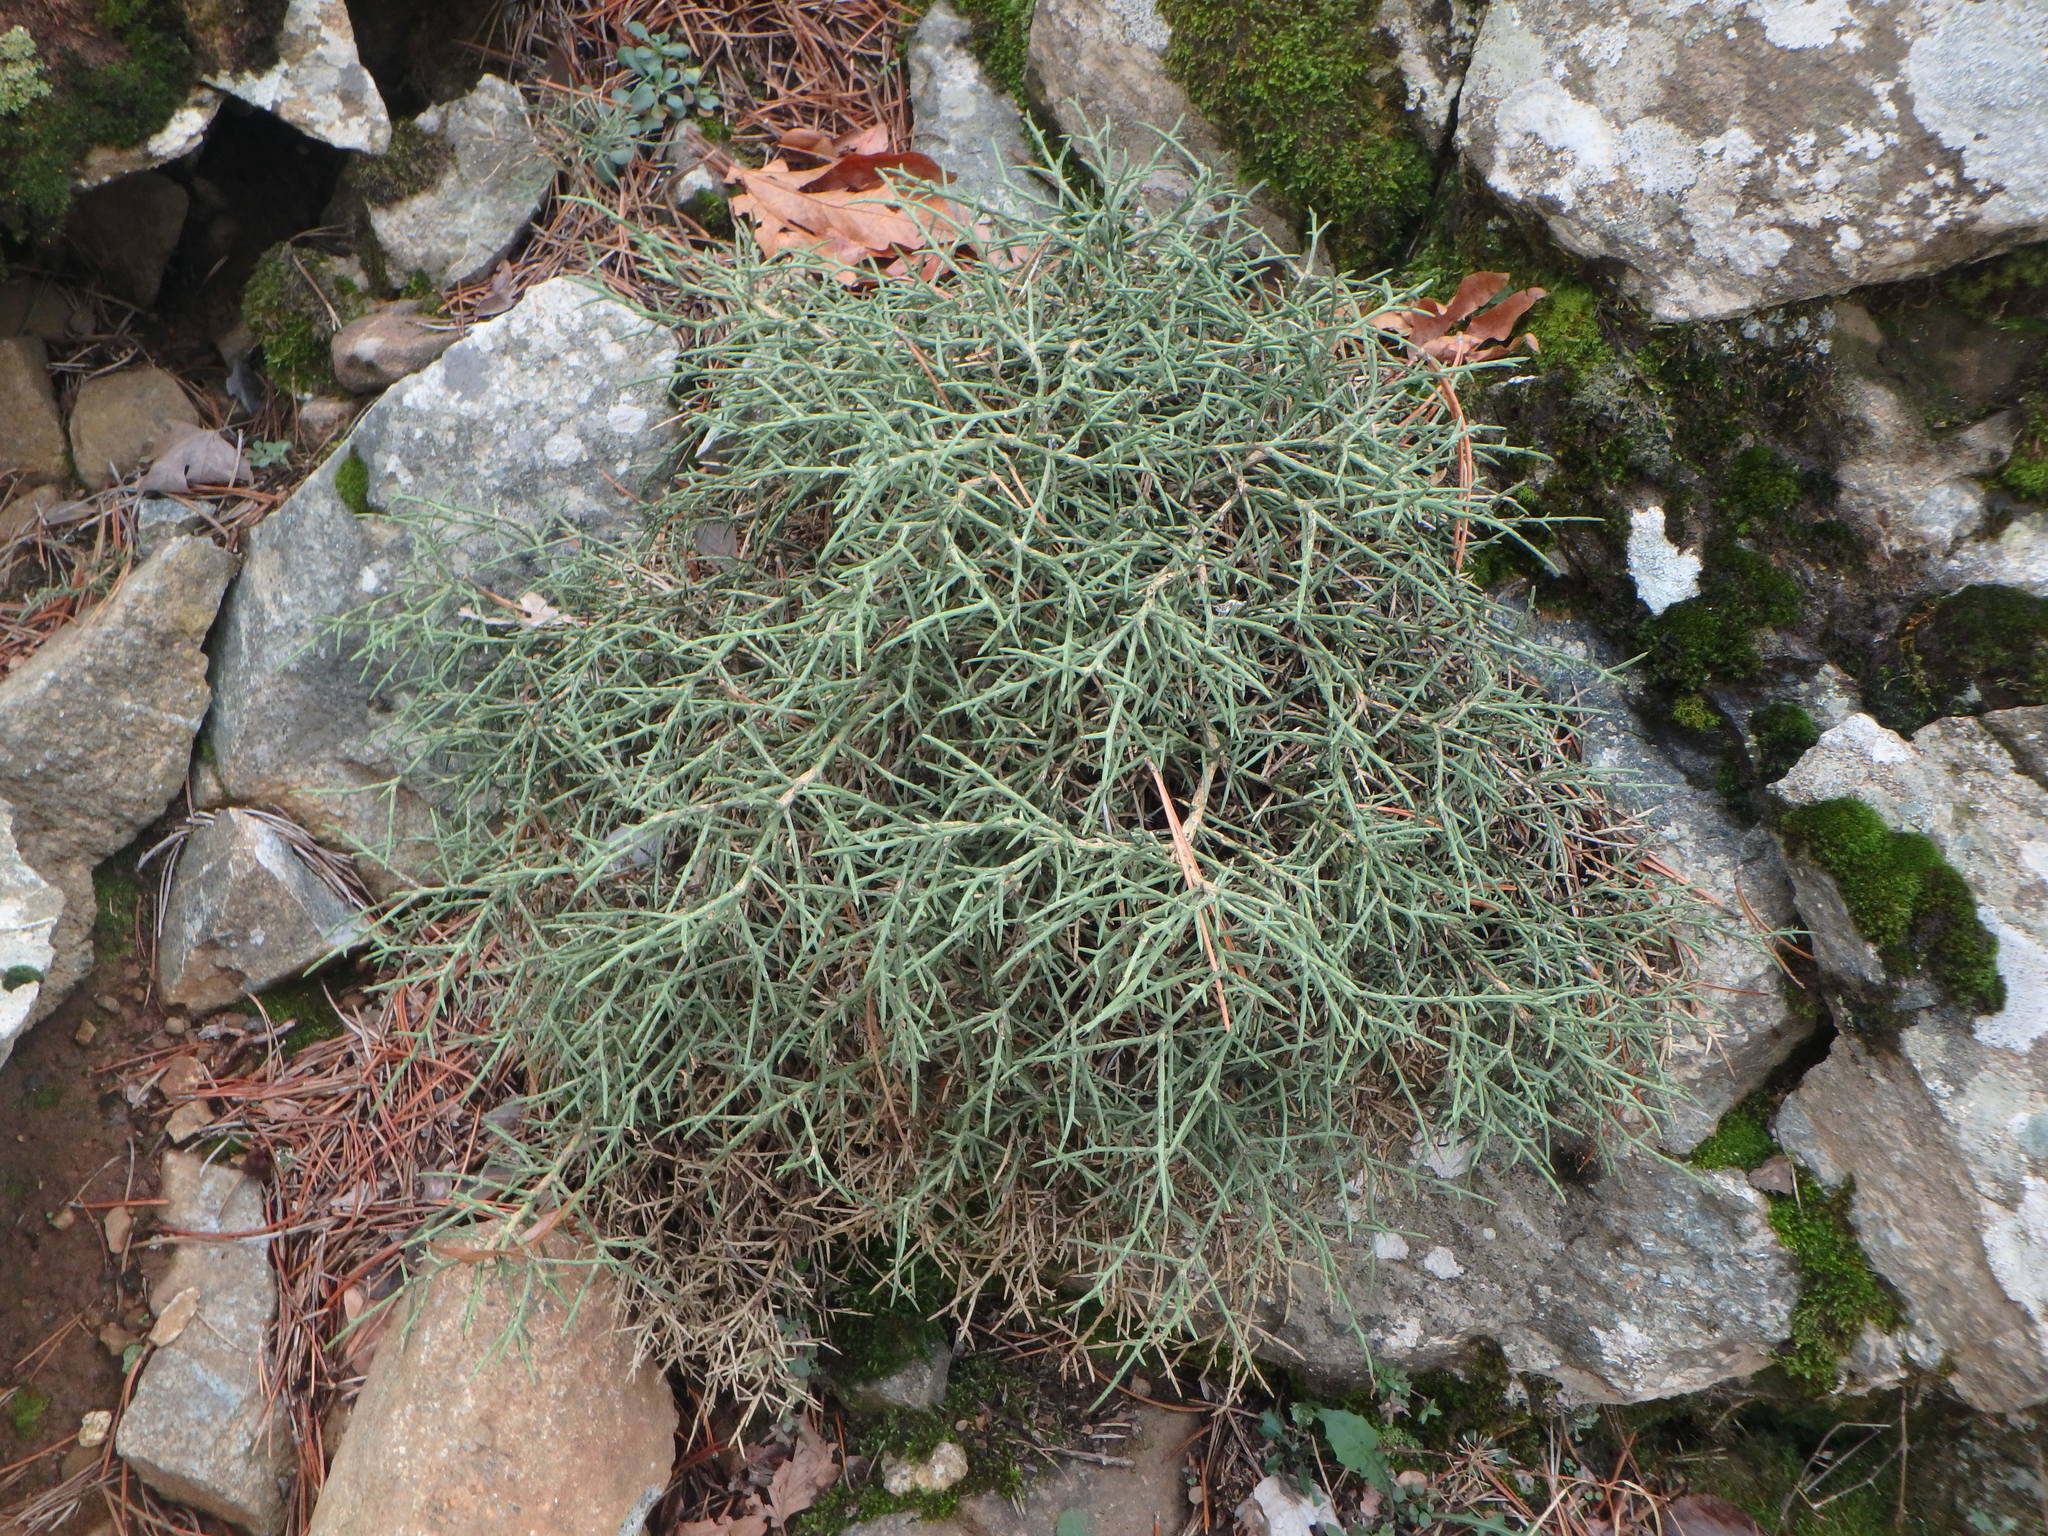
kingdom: Plantae
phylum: Tracheophyta
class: Magnoliopsida
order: Fabales
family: Fabaceae
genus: Genista
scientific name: Genista fasselata
